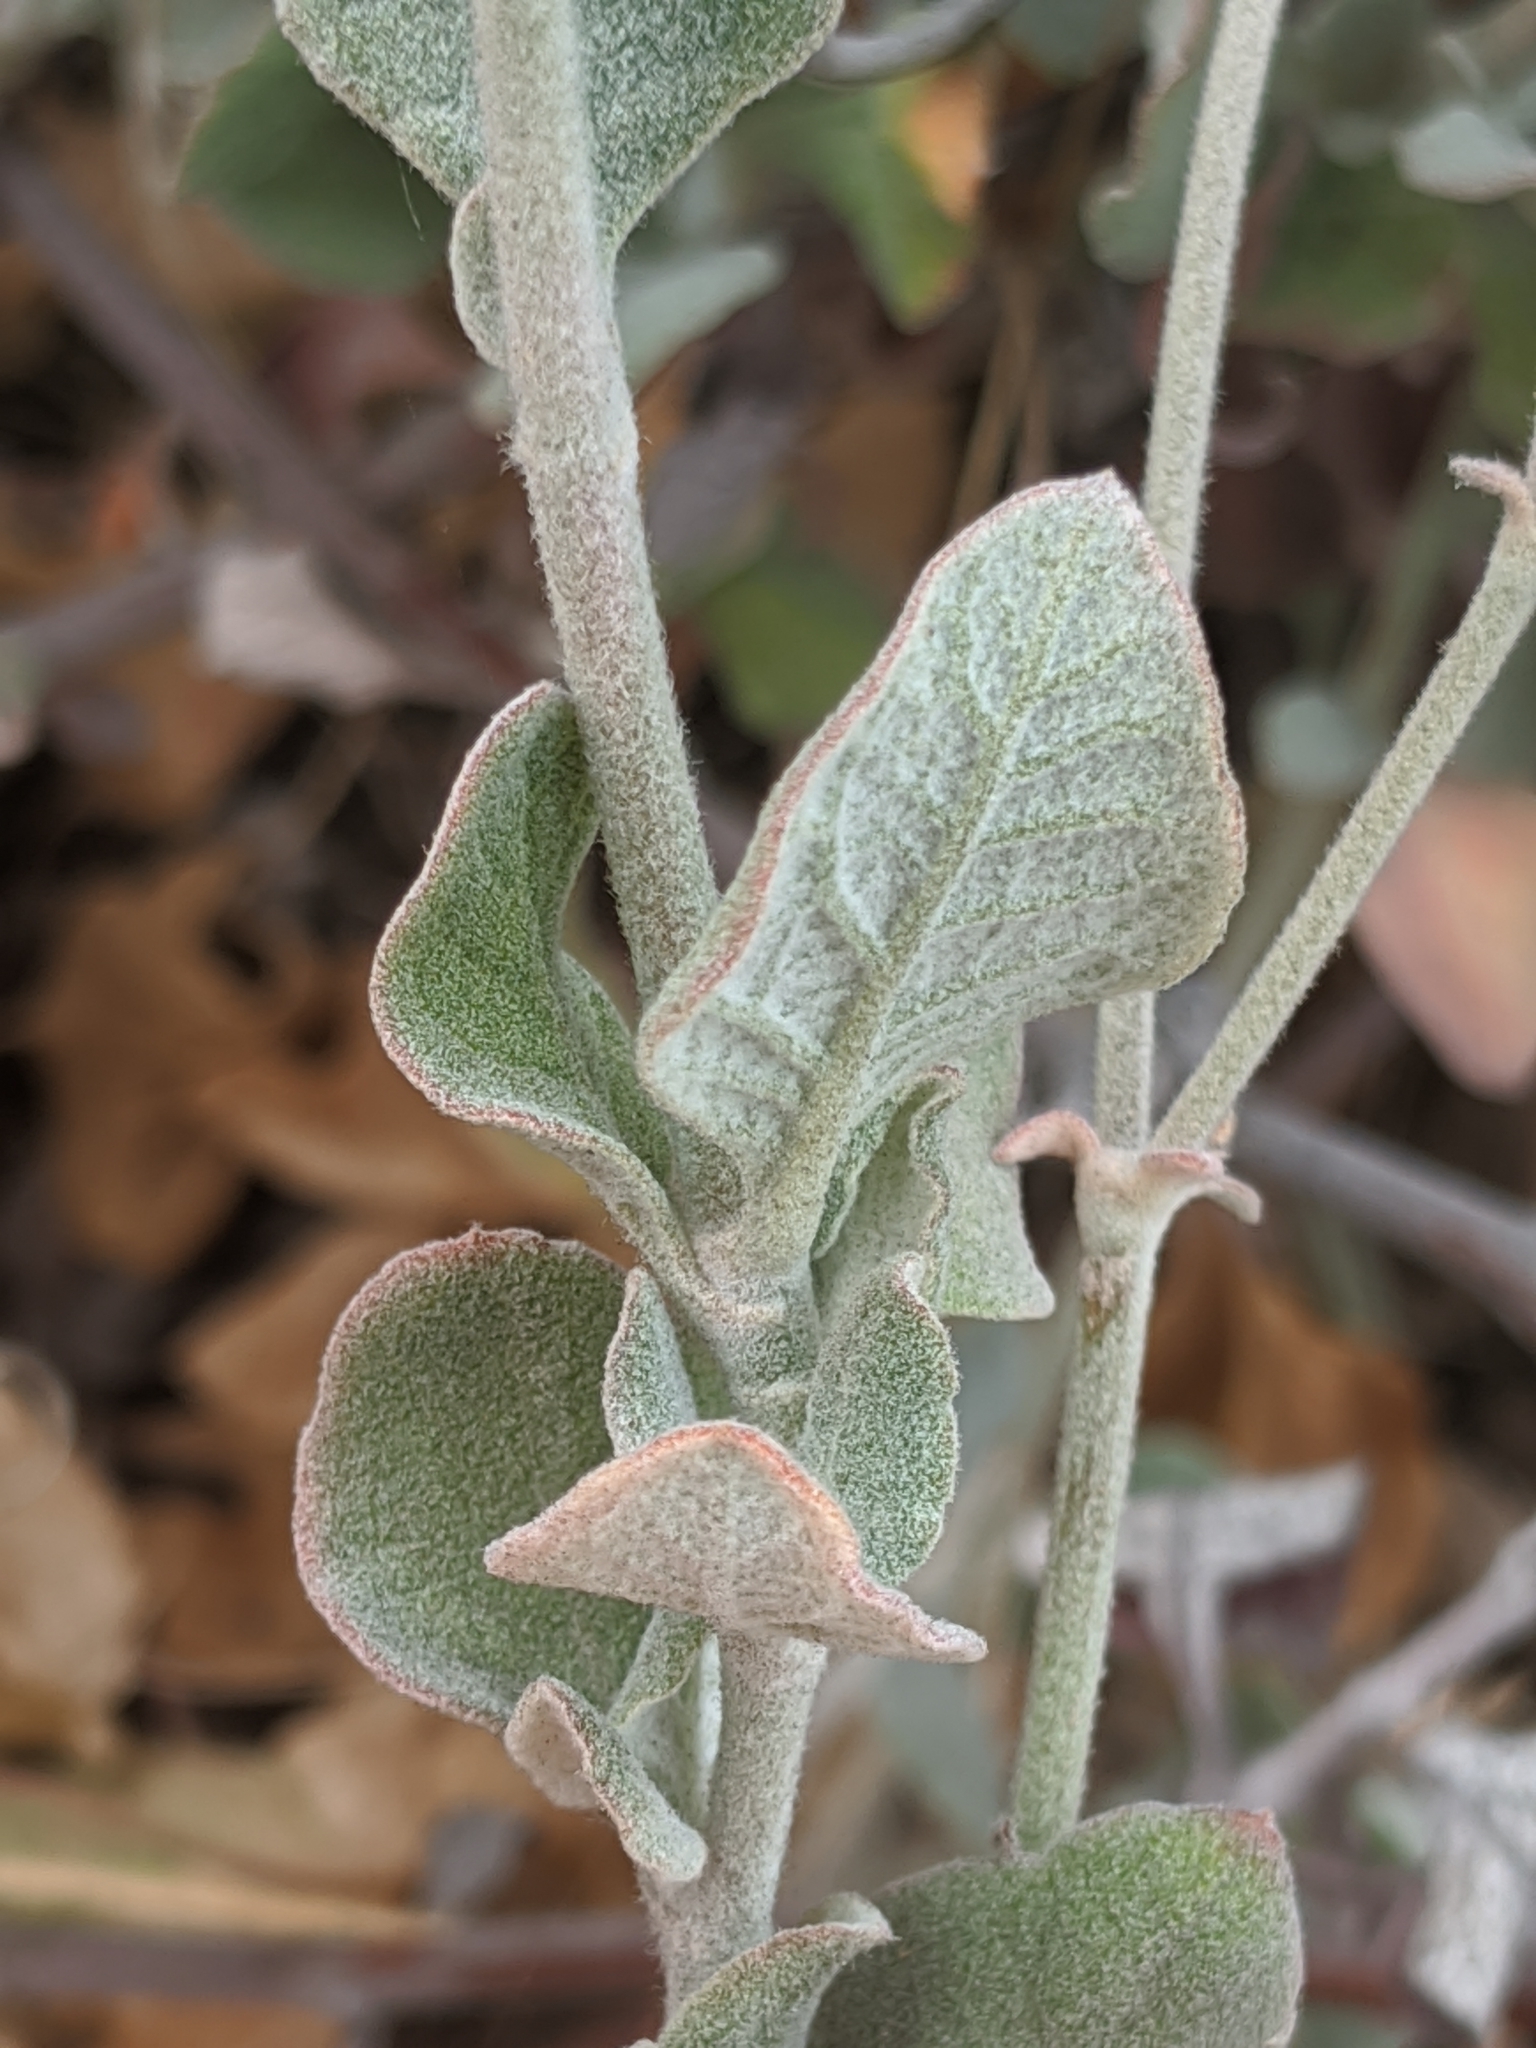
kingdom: Plantae
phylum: Tracheophyta
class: Magnoliopsida
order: Caryophyllales
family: Polygonaceae
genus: Eriogonum
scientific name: Eriogonum cinereum
